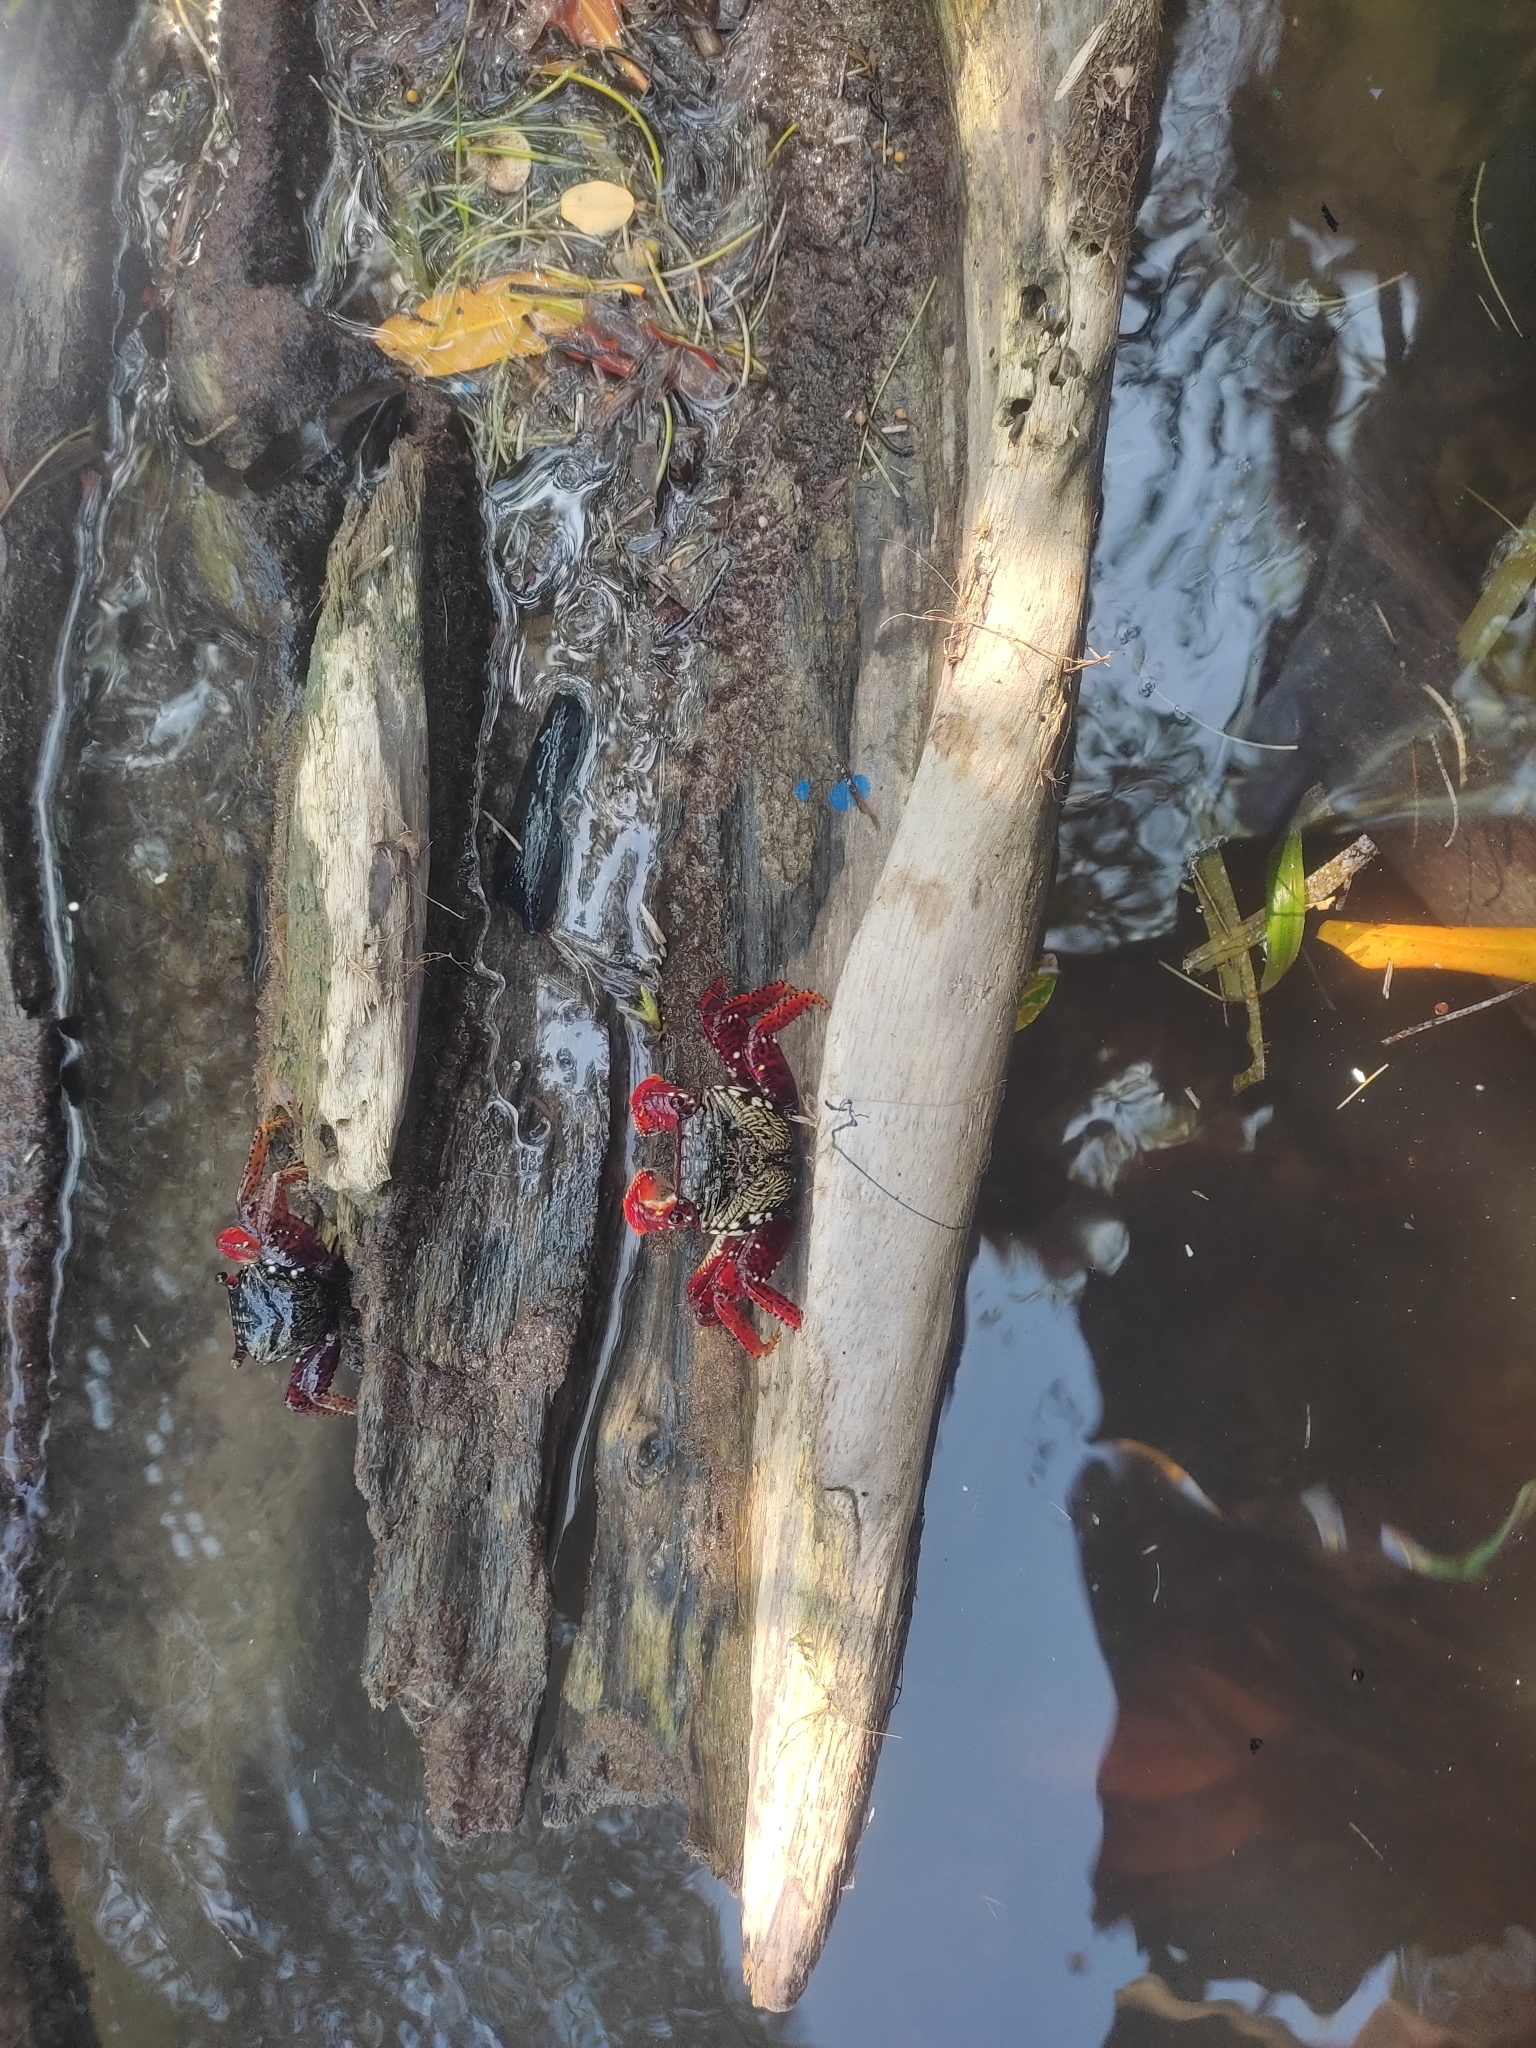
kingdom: Animalia
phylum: Arthropoda
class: Malacostraca
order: Decapoda
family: Grapsidae
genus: Goniopsis
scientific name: Goniopsis cruentata
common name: Mangrove crab
